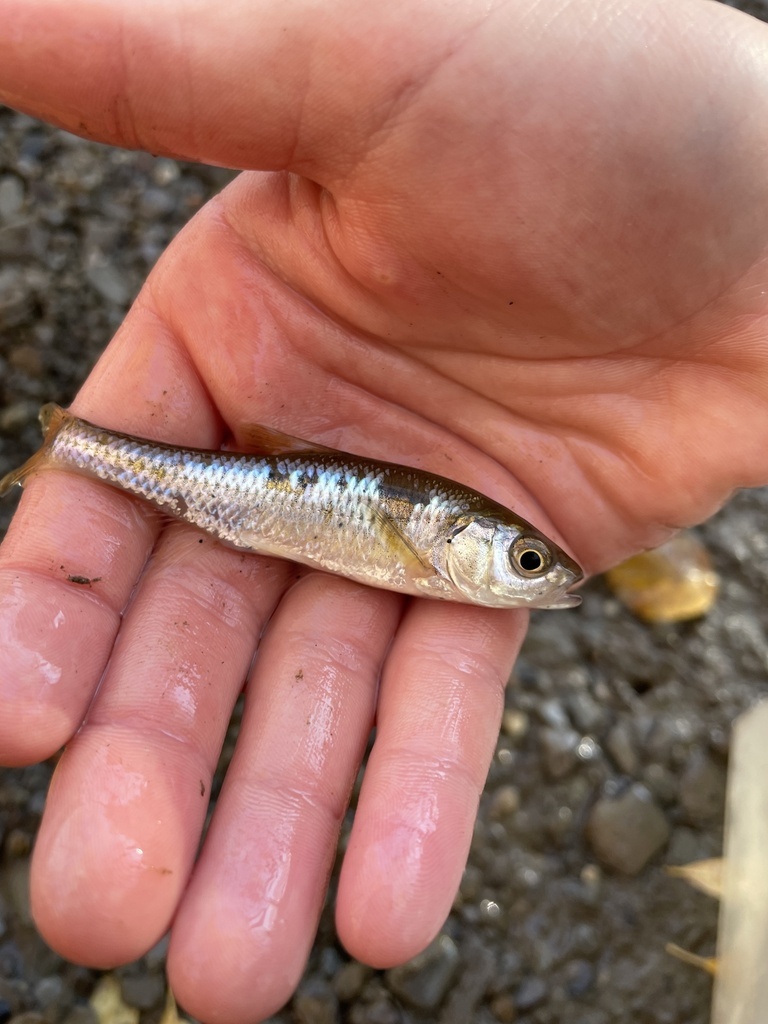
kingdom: Animalia
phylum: Chordata
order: Cypriniformes
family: Cyprinidae
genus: Luxilus
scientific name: Luxilus cornutus
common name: Common shiner
